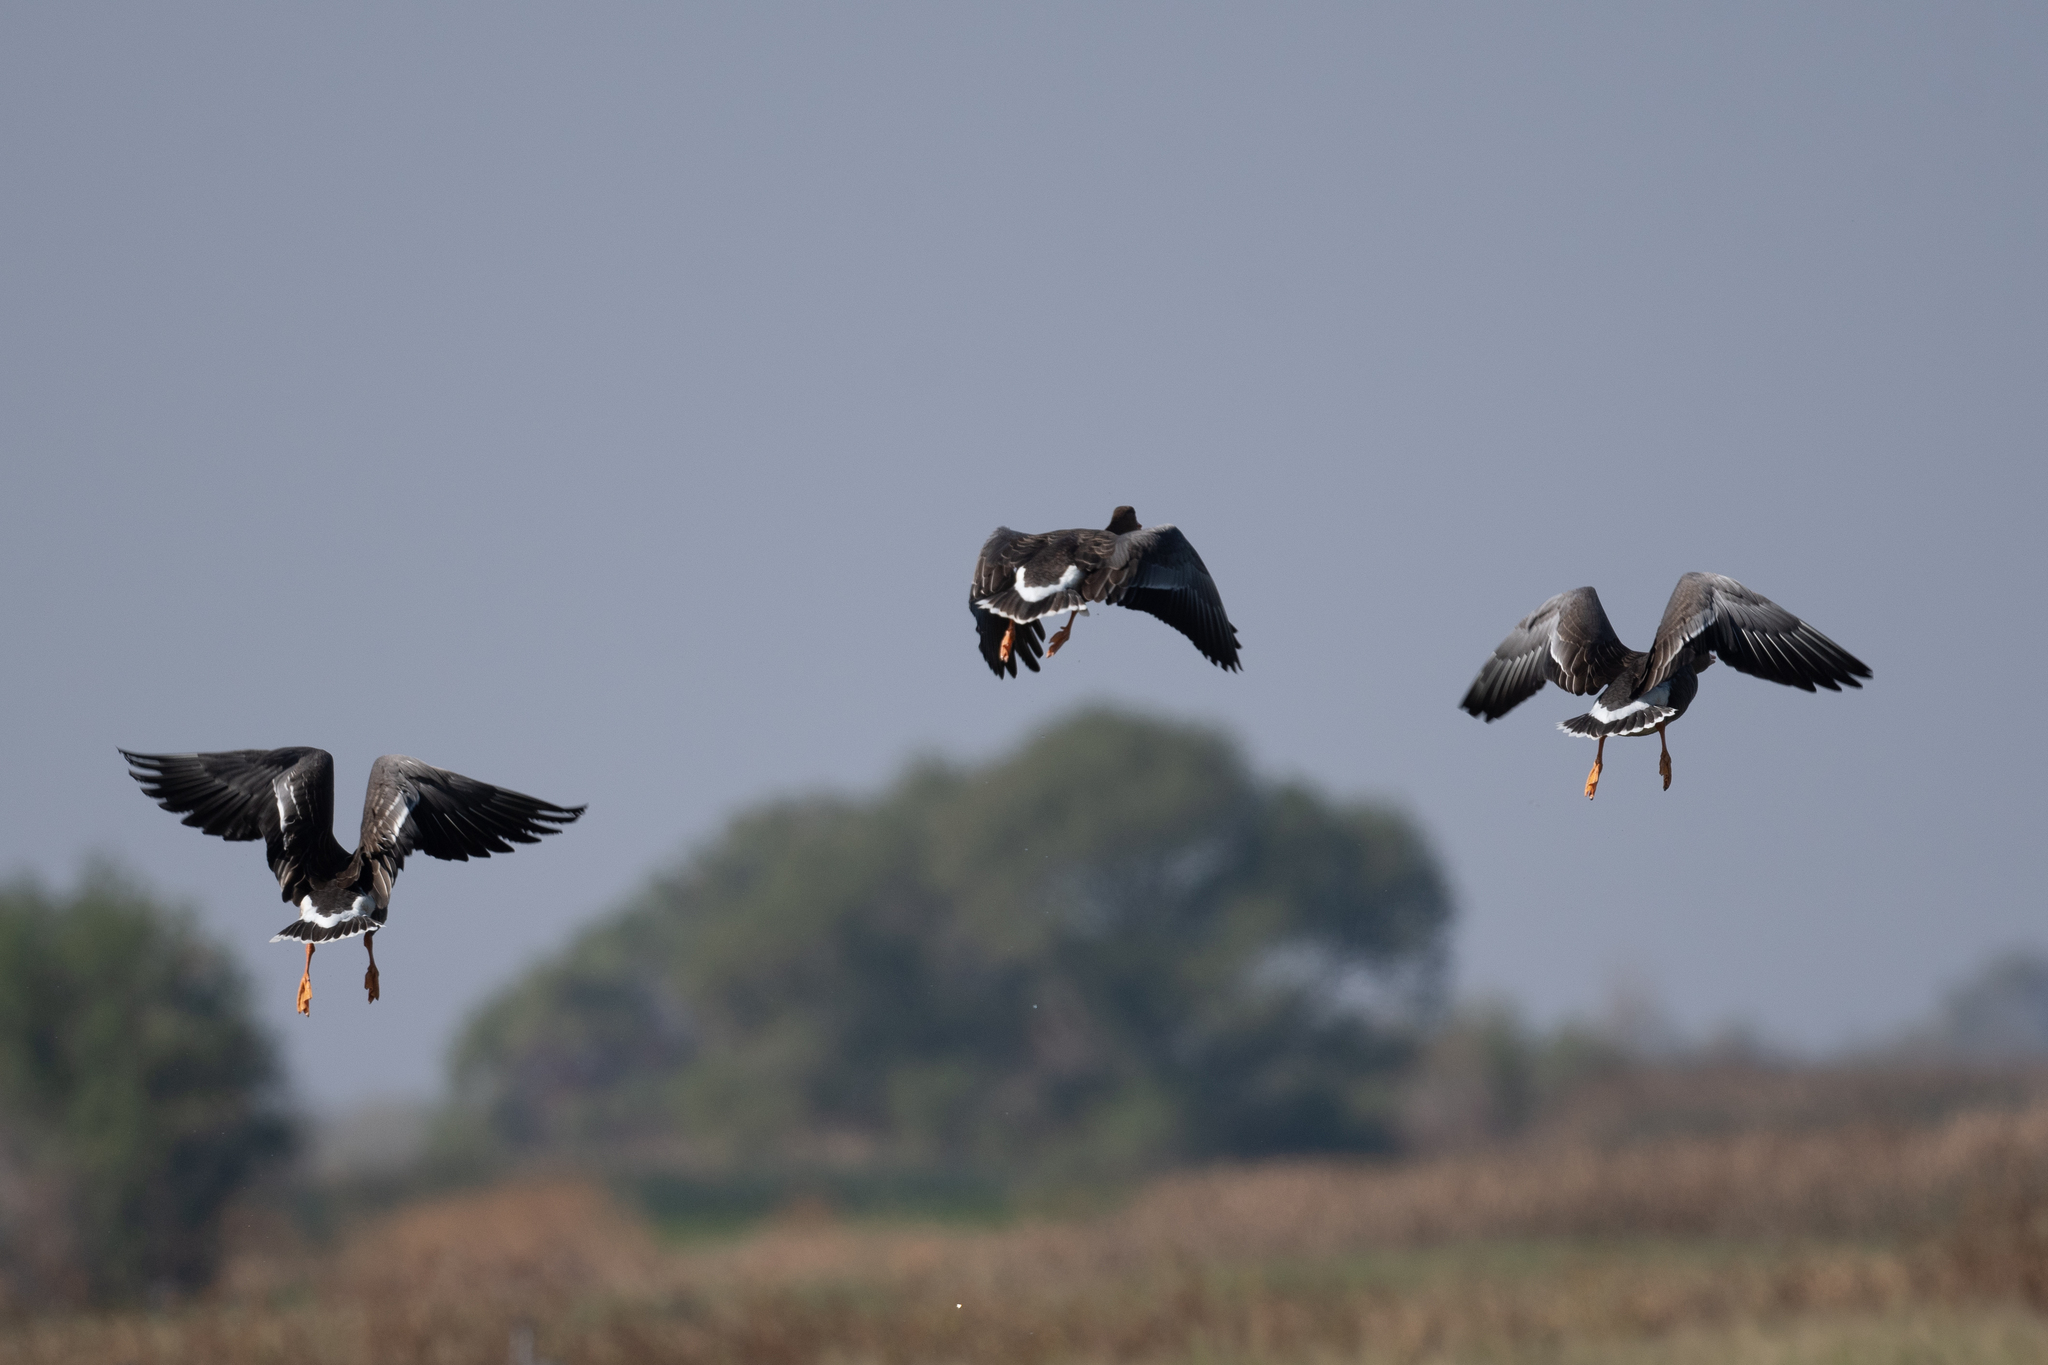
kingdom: Animalia
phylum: Chordata
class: Aves
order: Anseriformes
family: Anatidae
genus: Anser
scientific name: Anser albifrons
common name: Greater white-fronted goose
